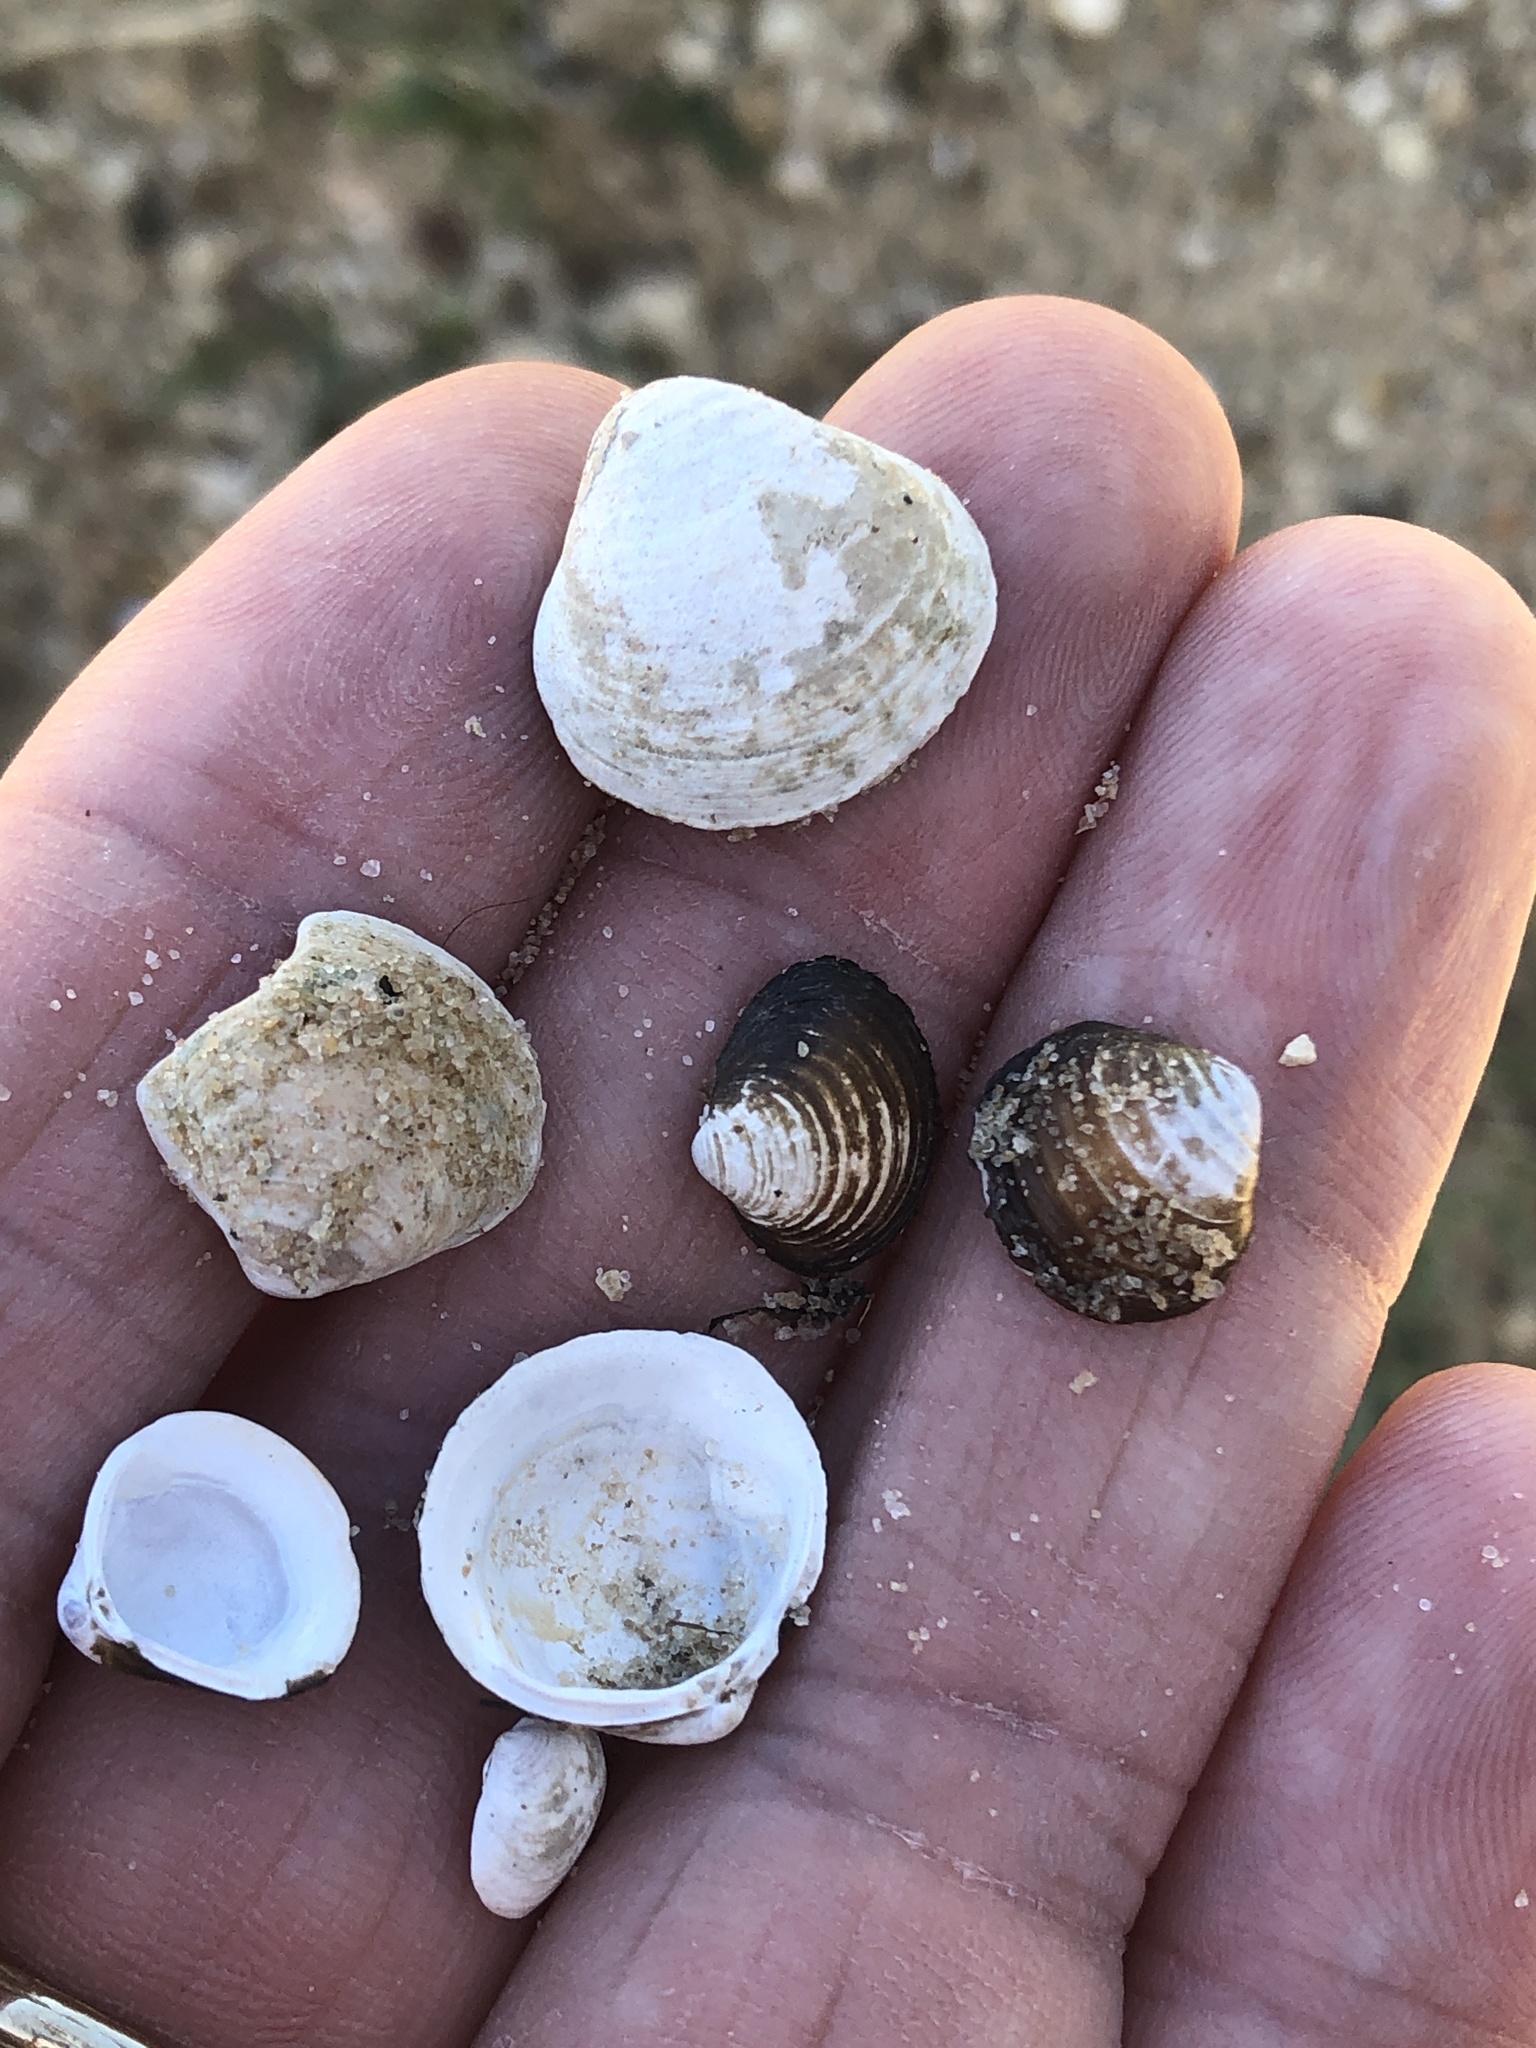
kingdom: Animalia
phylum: Mollusca
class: Bivalvia
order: Venerida
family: Cyrenidae
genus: Corbicula
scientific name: Corbicula fluminea
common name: Asian clam
